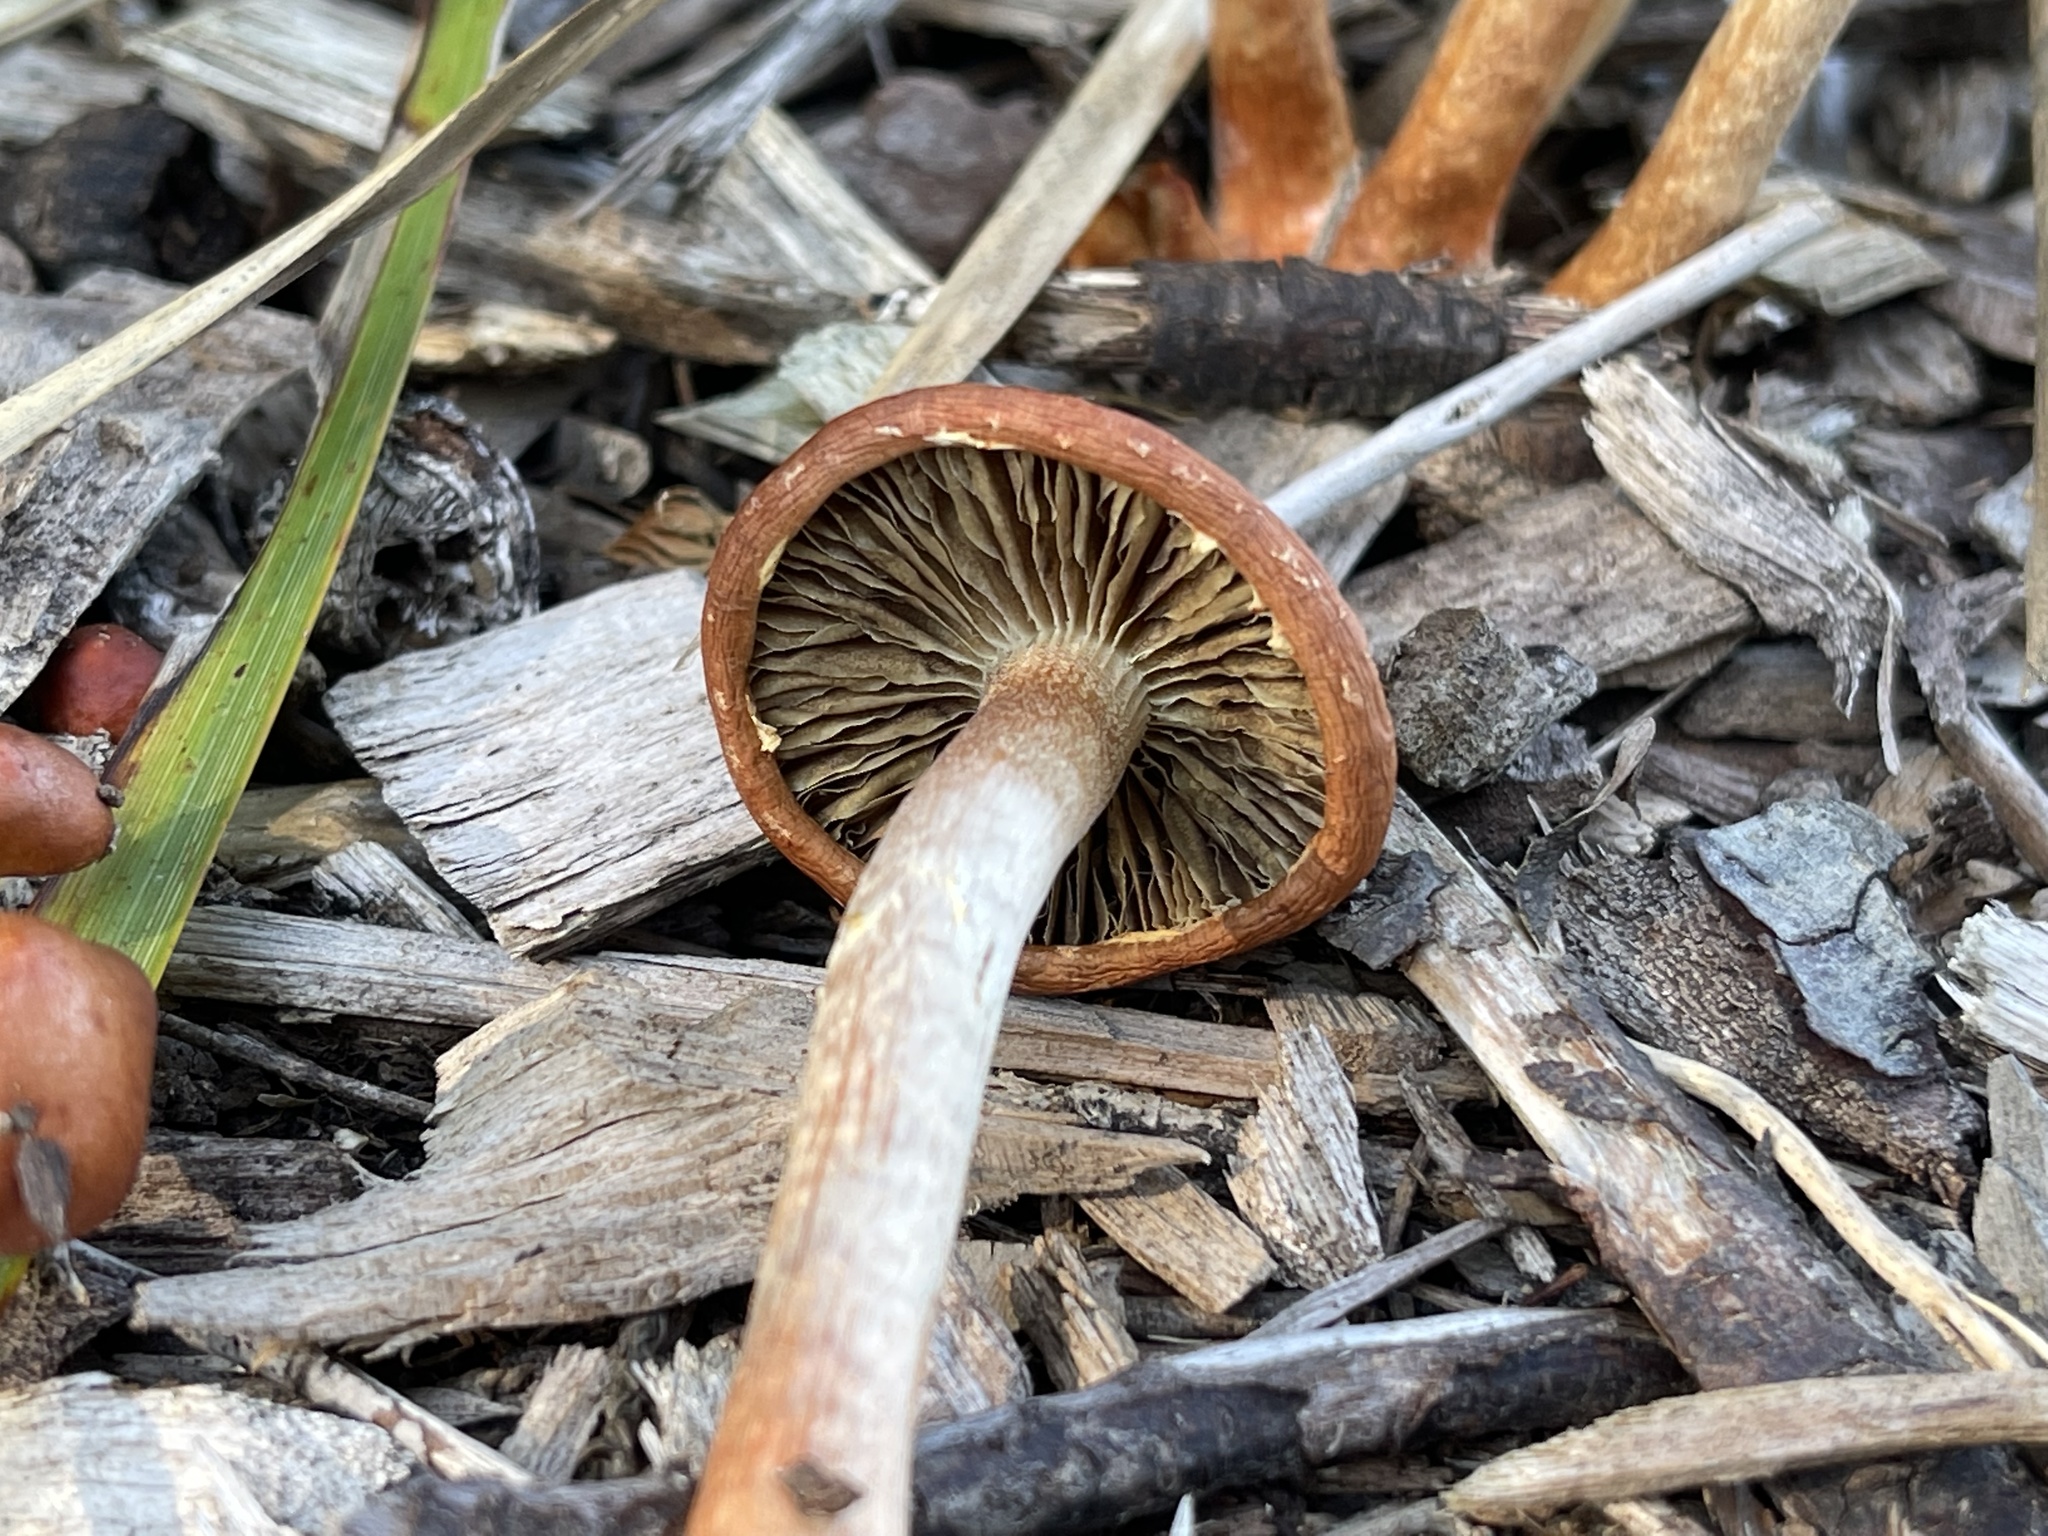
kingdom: Fungi
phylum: Basidiomycota
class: Agaricomycetes
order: Agaricales
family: Strophariaceae
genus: Leratiomyces
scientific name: Leratiomyces ceres
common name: Redlead roundhead
